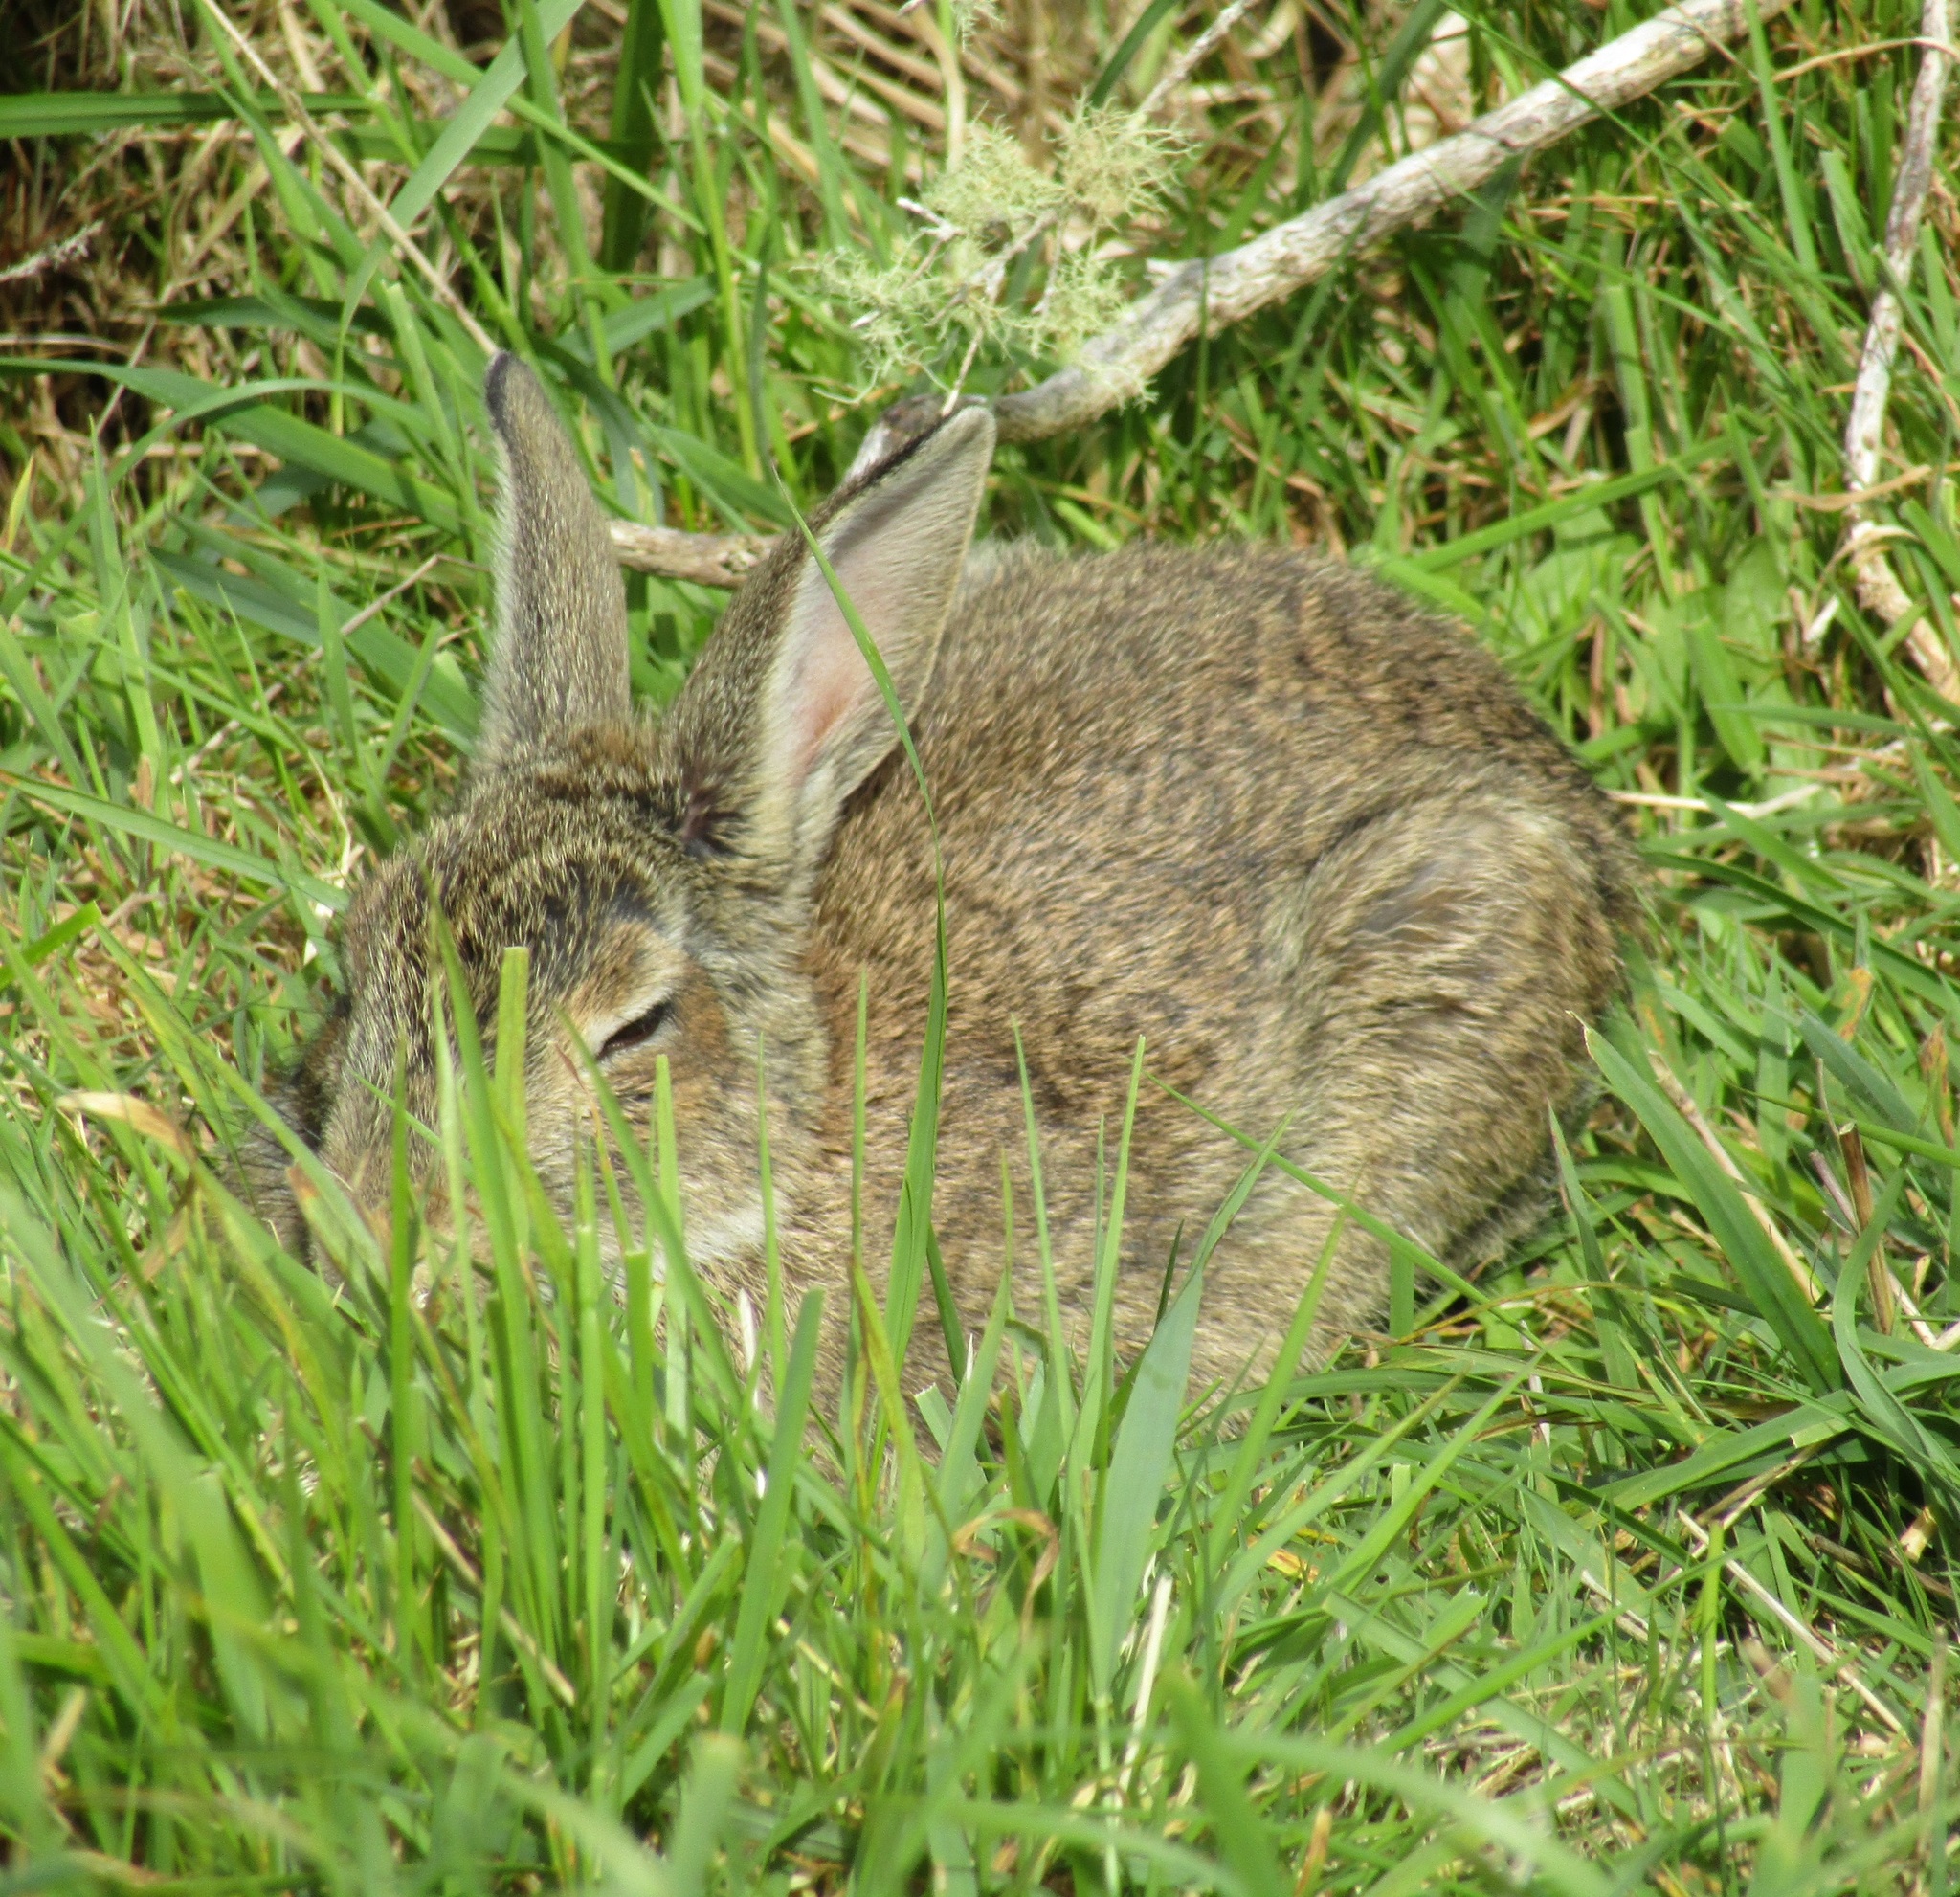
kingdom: Animalia
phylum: Chordata
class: Mammalia
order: Lagomorpha
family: Leporidae
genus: Oryctolagus
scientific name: Oryctolagus cuniculus
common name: European rabbit
